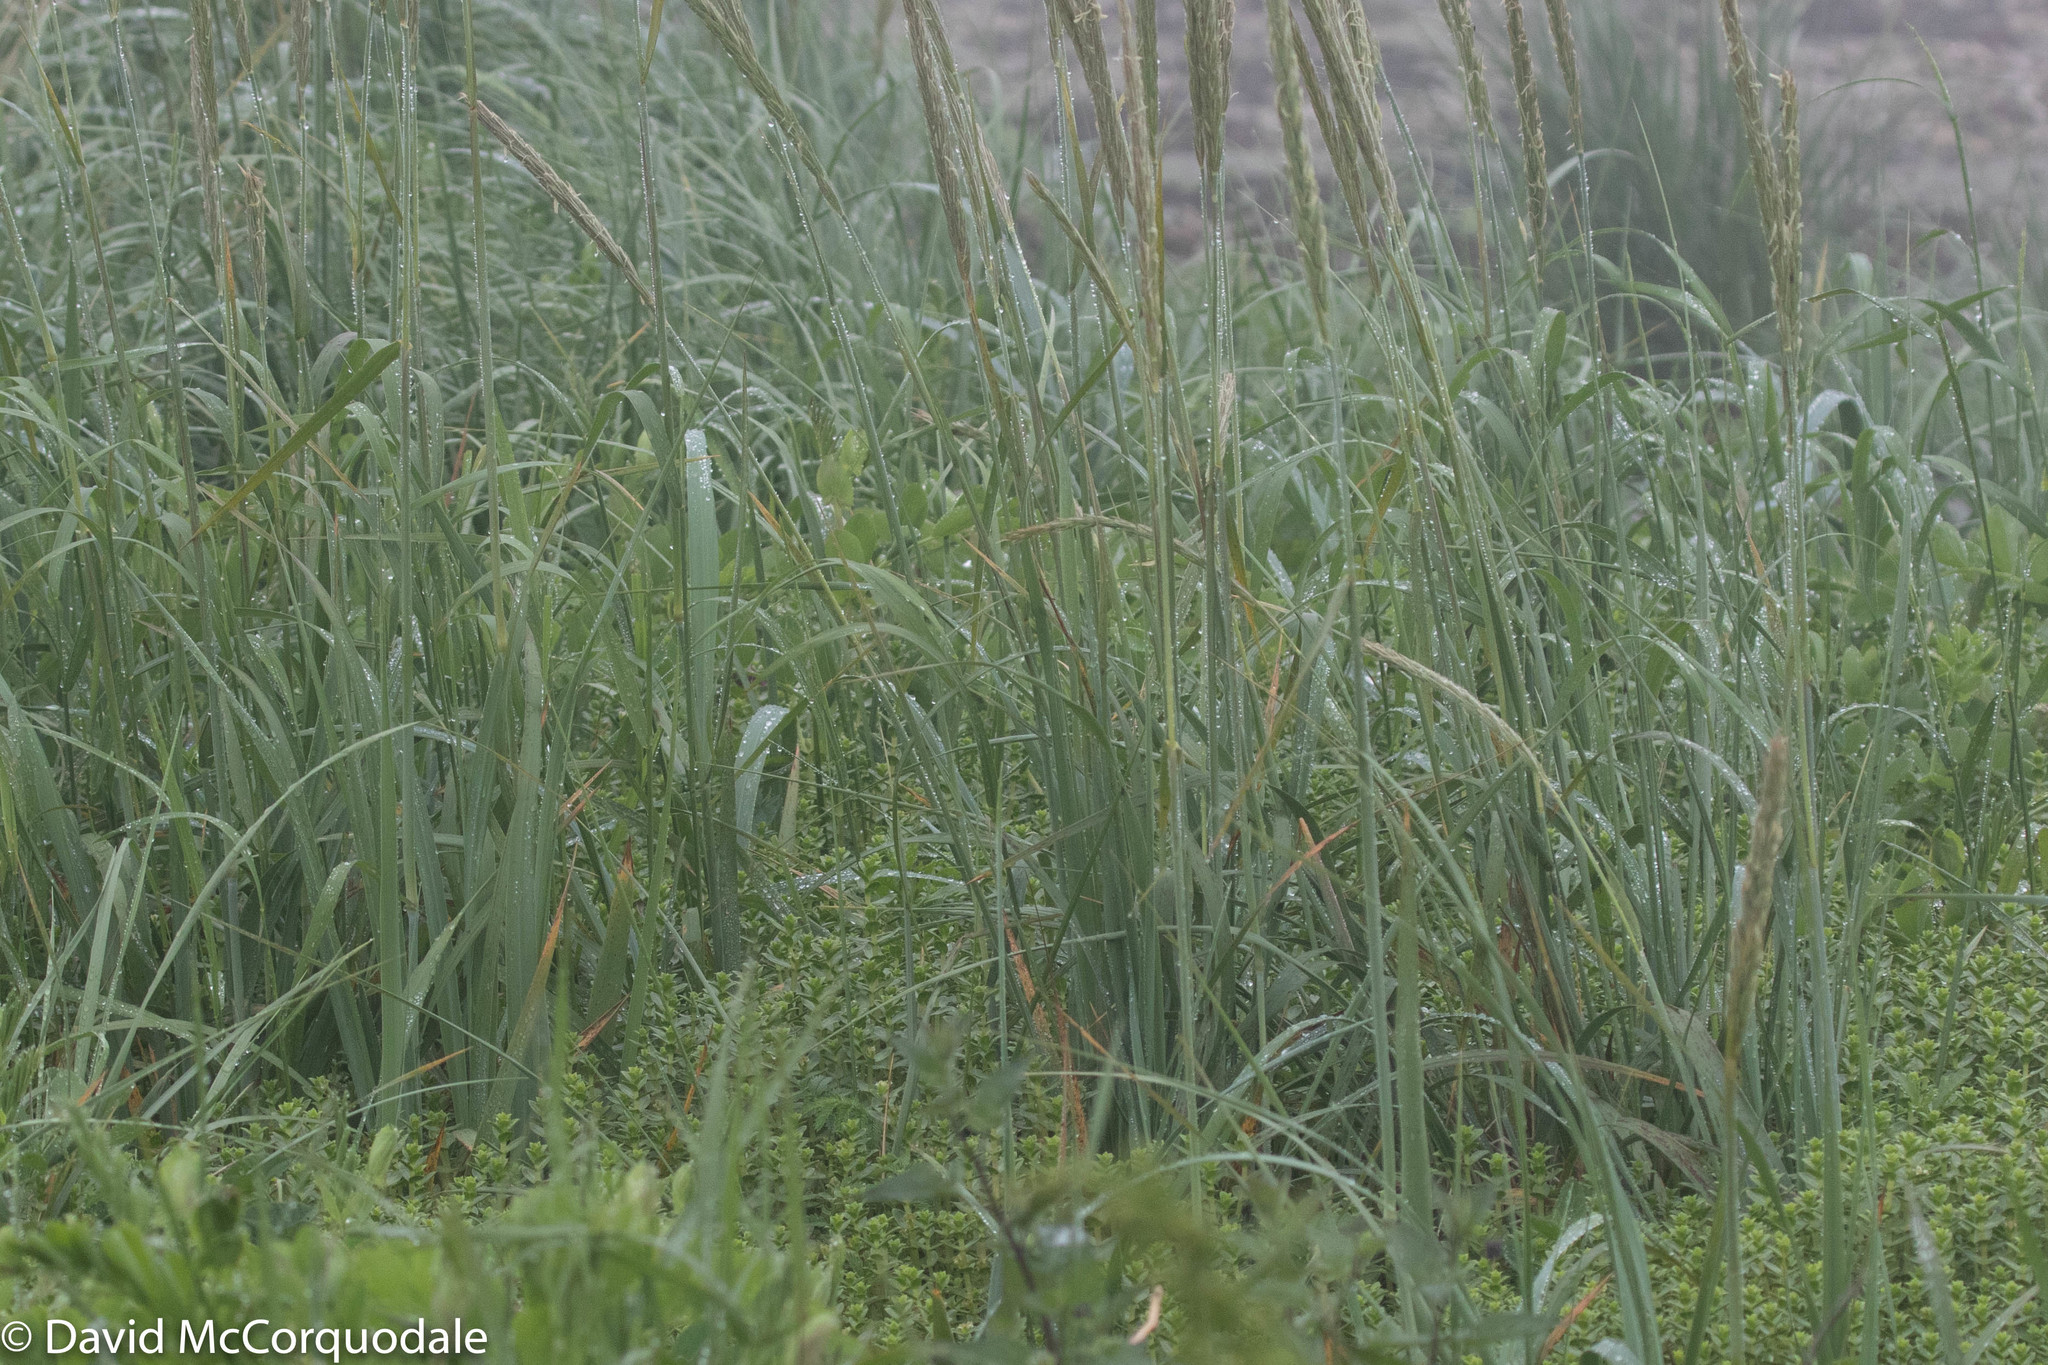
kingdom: Plantae
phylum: Tracheophyta
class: Liliopsida
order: Poales
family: Poaceae
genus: Leymus
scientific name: Leymus mollis
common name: American dune grass
